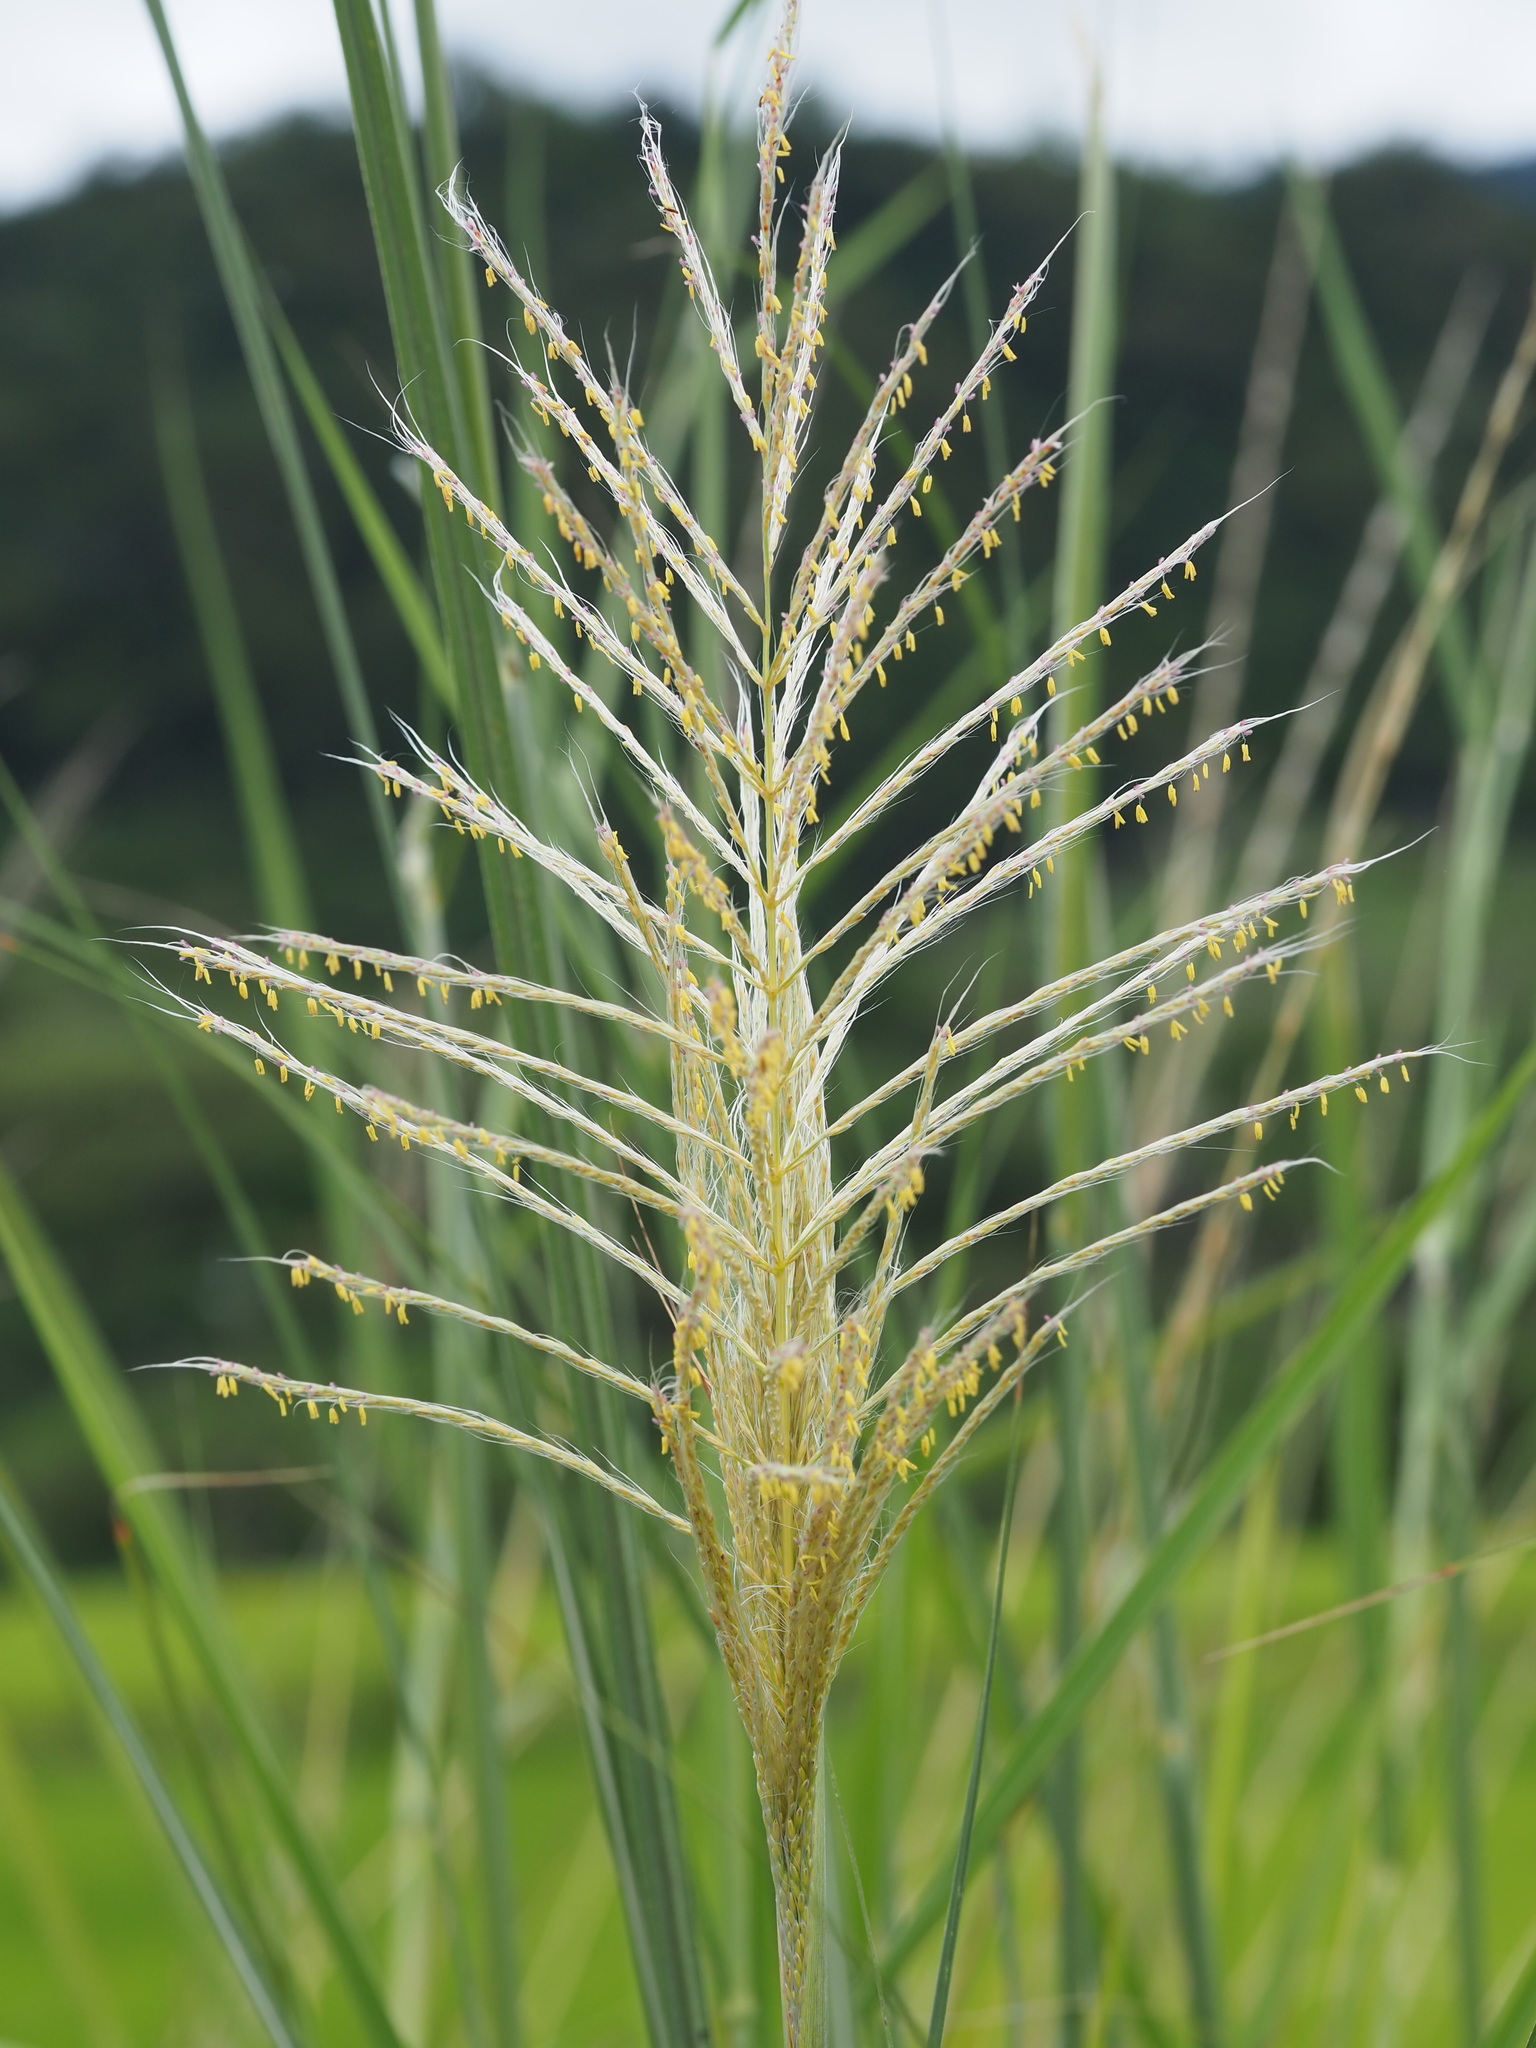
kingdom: Plantae
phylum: Tracheophyta
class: Liliopsida
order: Poales
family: Poaceae
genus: Saccharum
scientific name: Saccharum spontaneum
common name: Wild sugarcane
